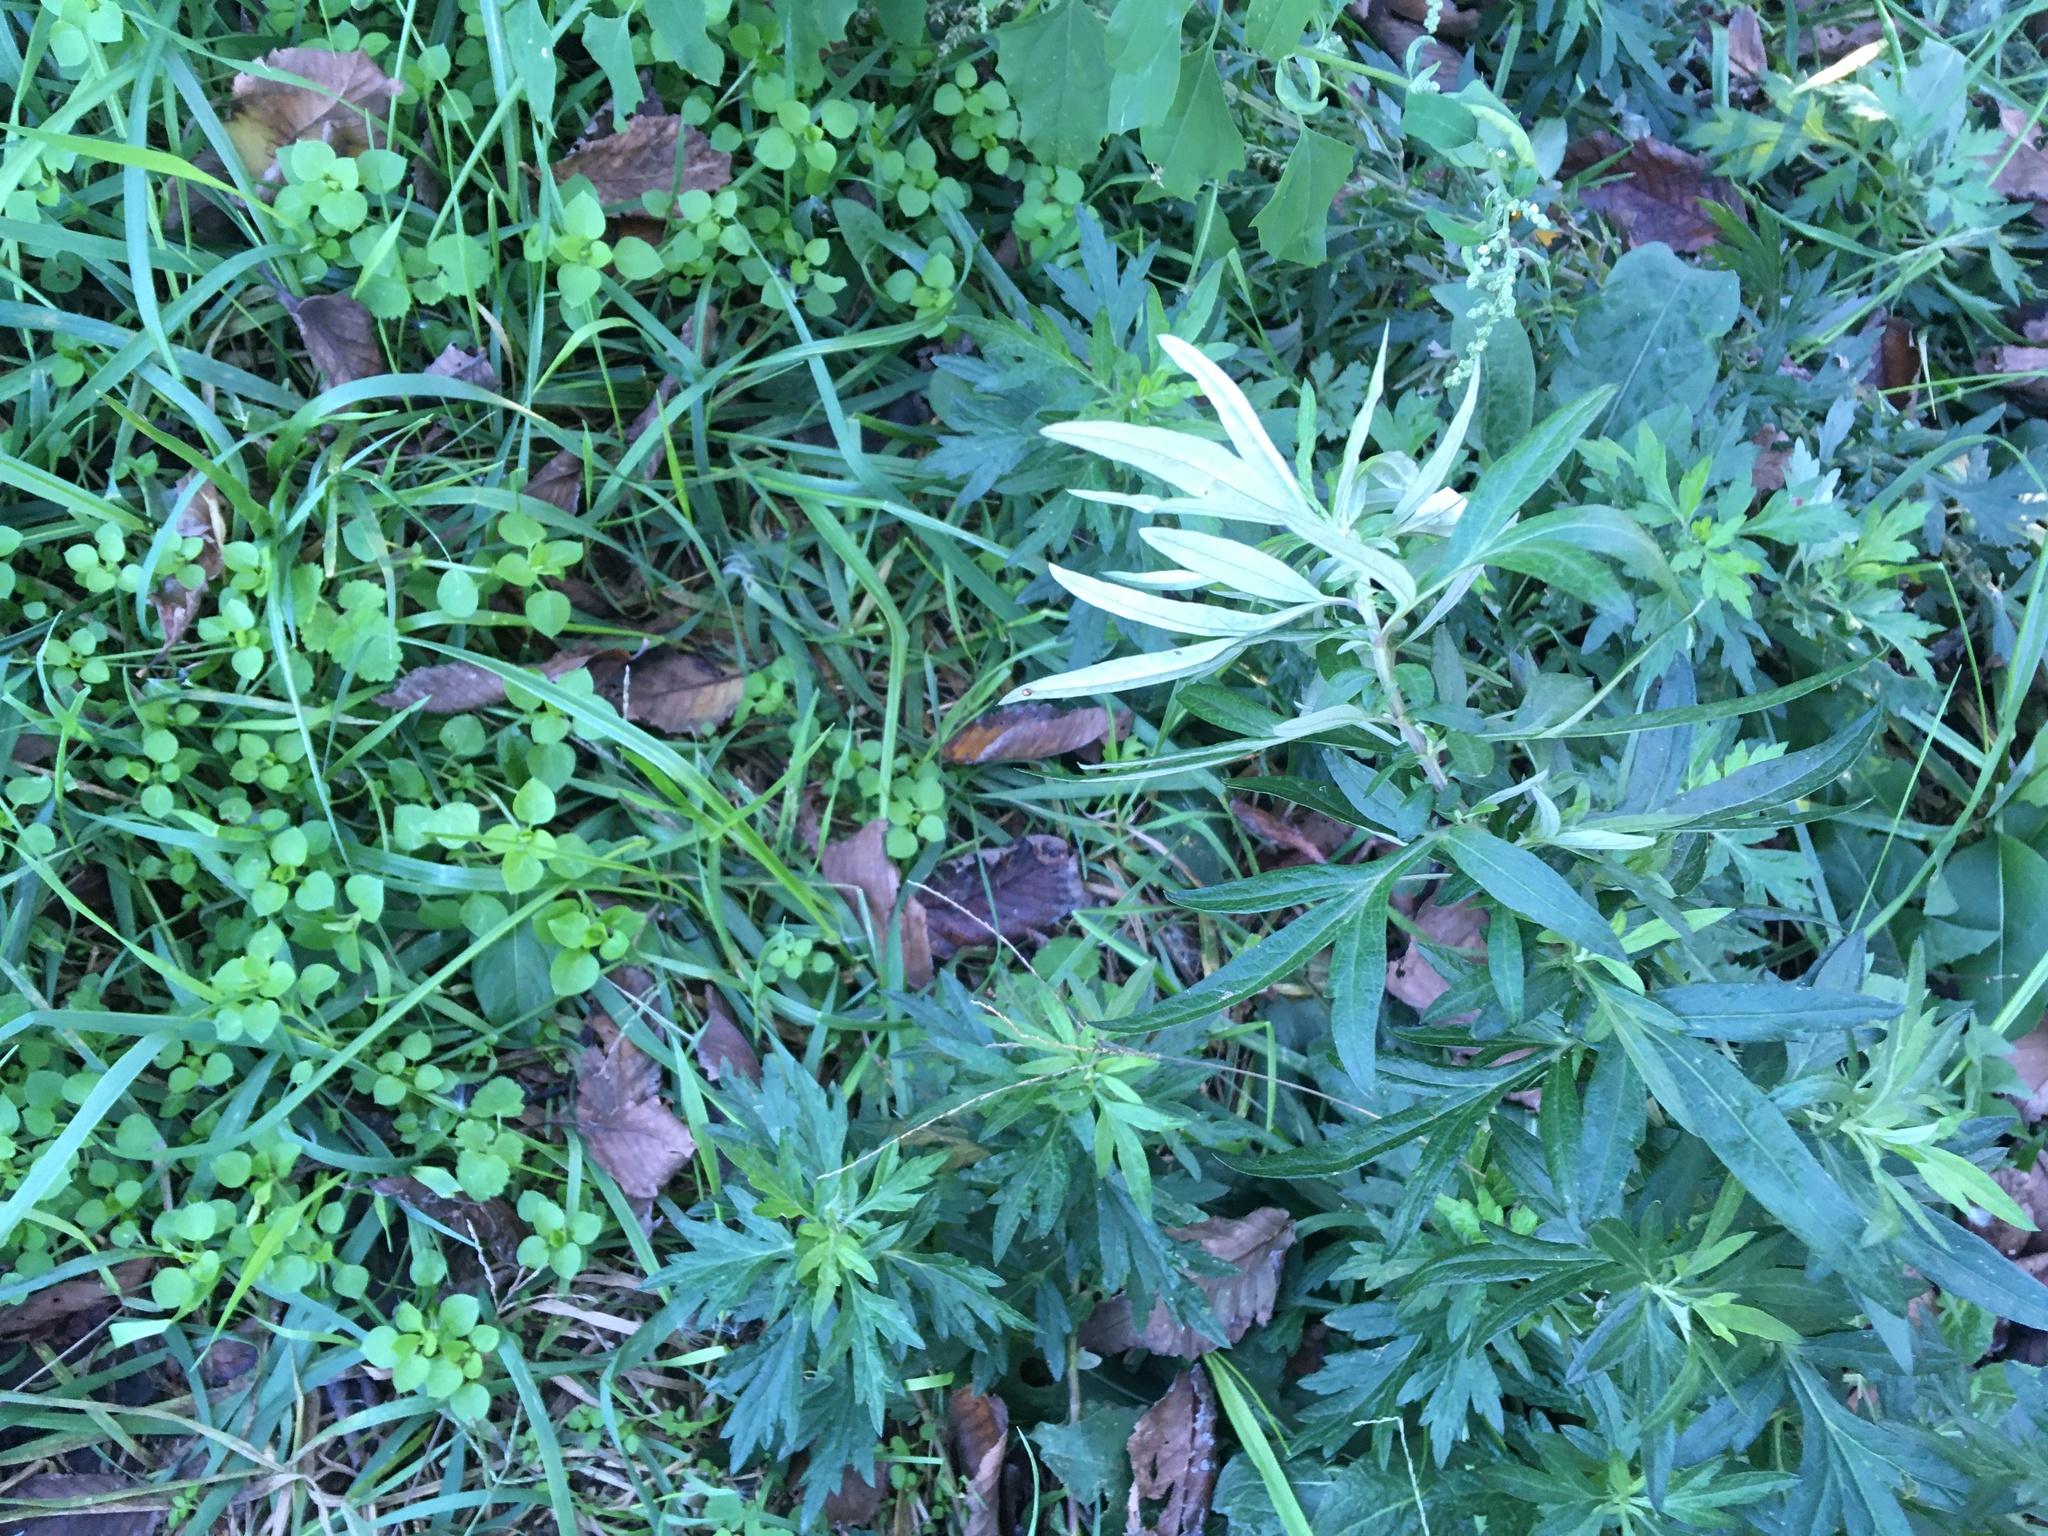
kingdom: Plantae
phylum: Tracheophyta
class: Magnoliopsida
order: Asterales
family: Asteraceae
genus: Artemisia
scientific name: Artemisia vulgaris
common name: Mugwort
